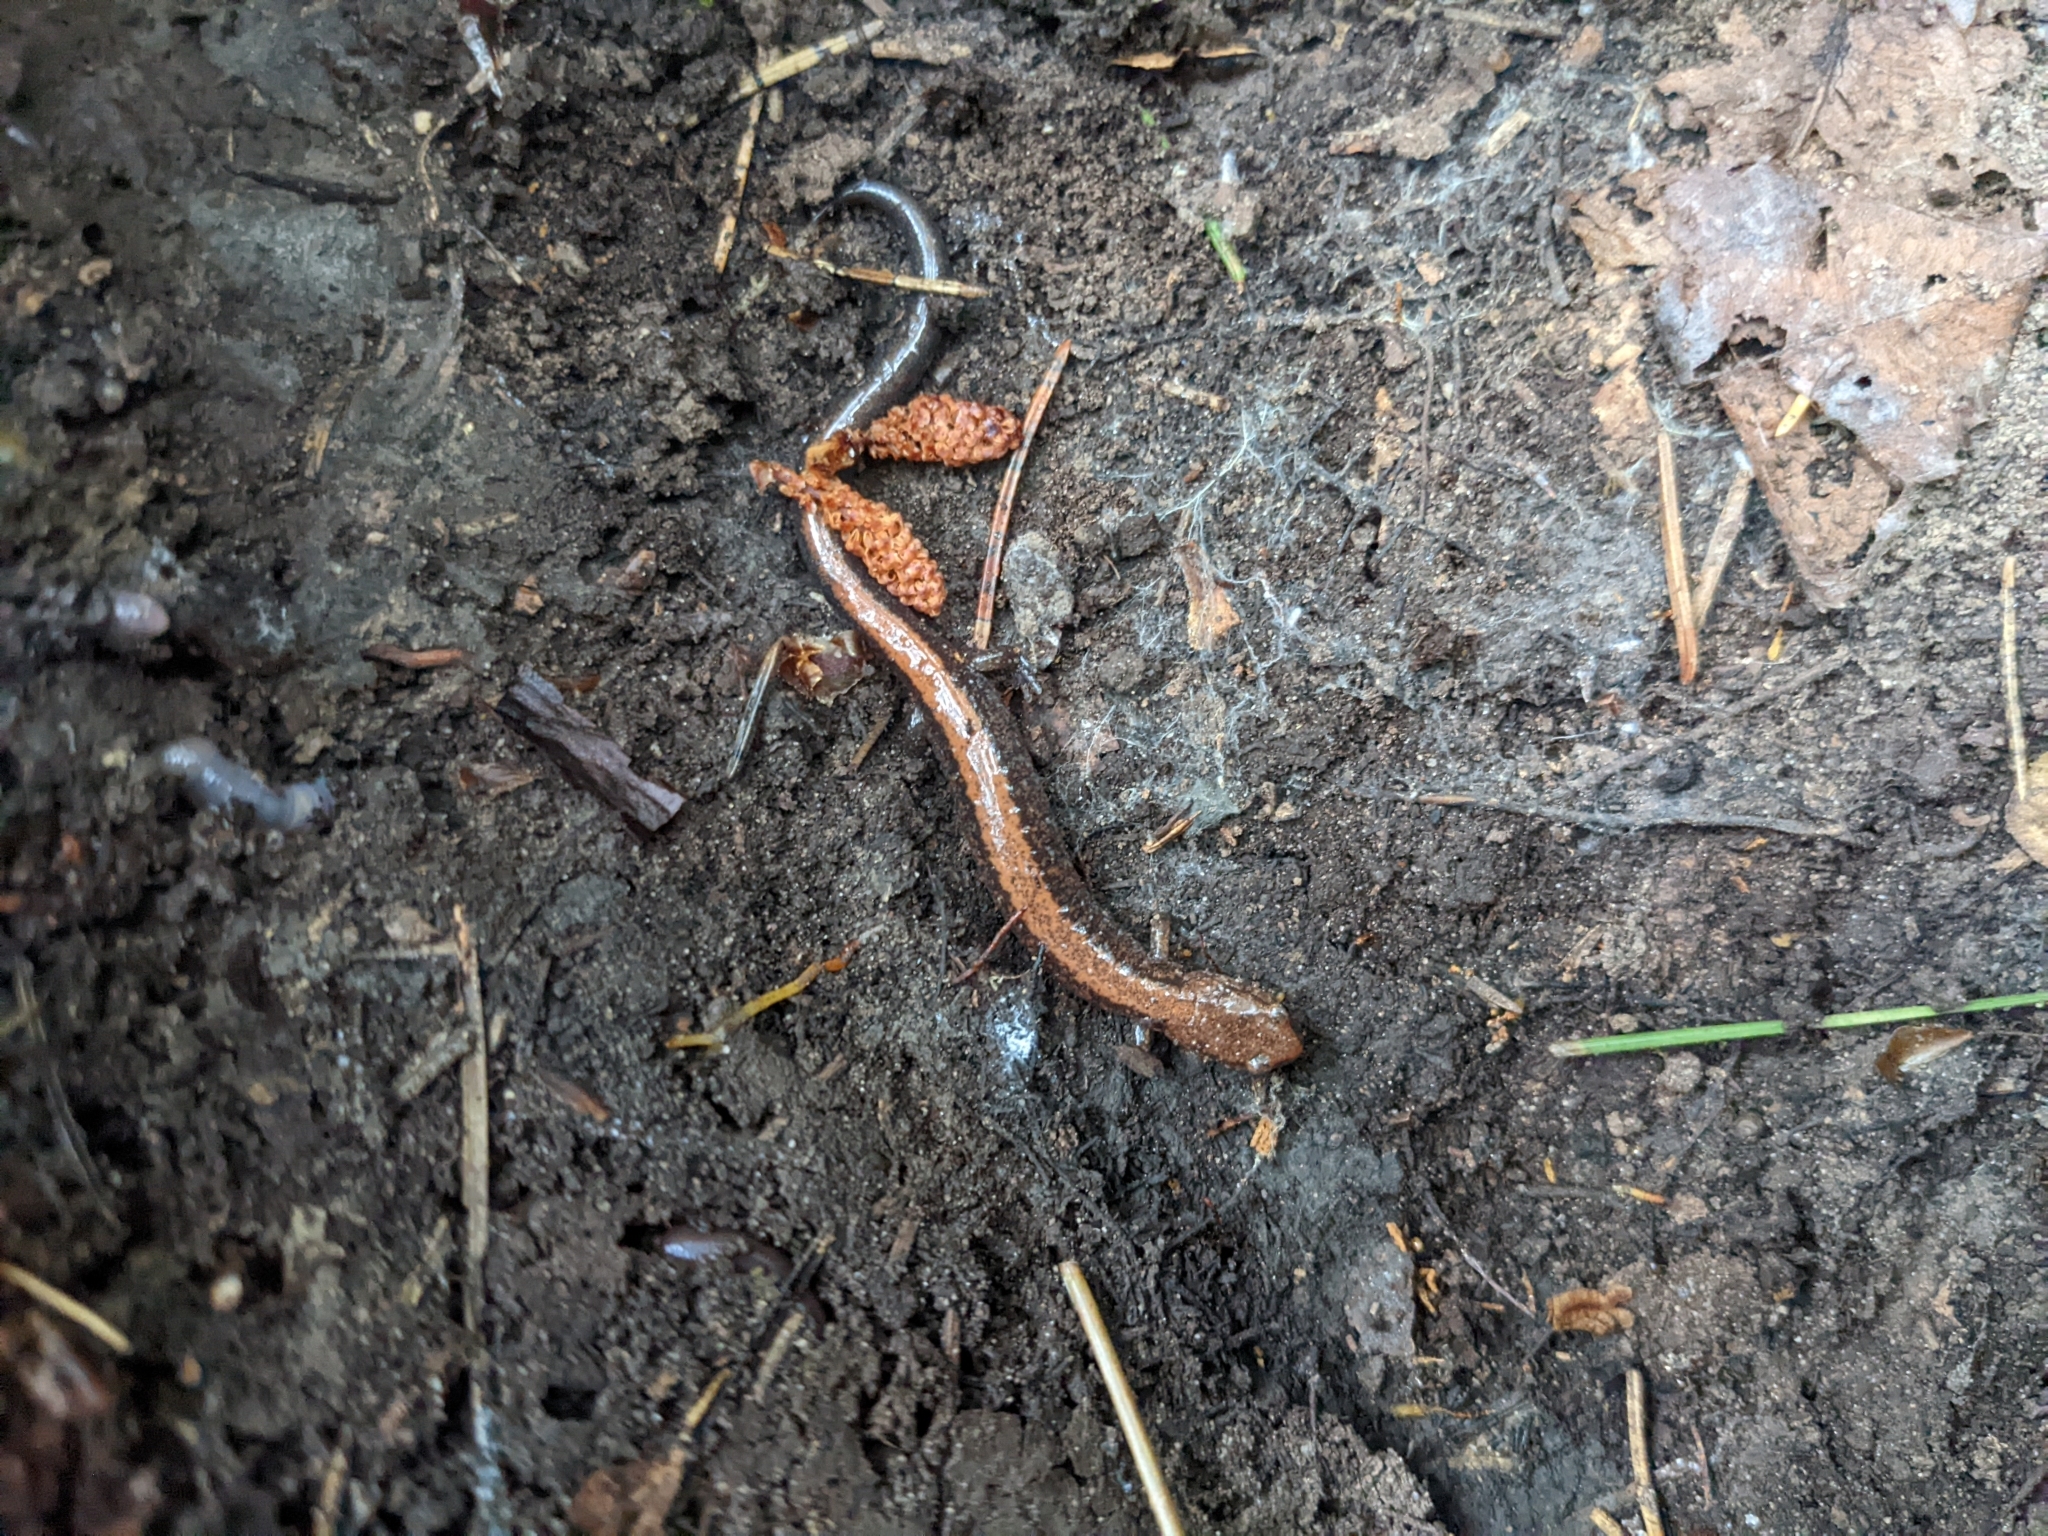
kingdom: Animalia
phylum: Chordata
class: Amphibia
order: Caudata
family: Plethodontidae
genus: Plethodon
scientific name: Plethodon cinereus
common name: Redback salamander
